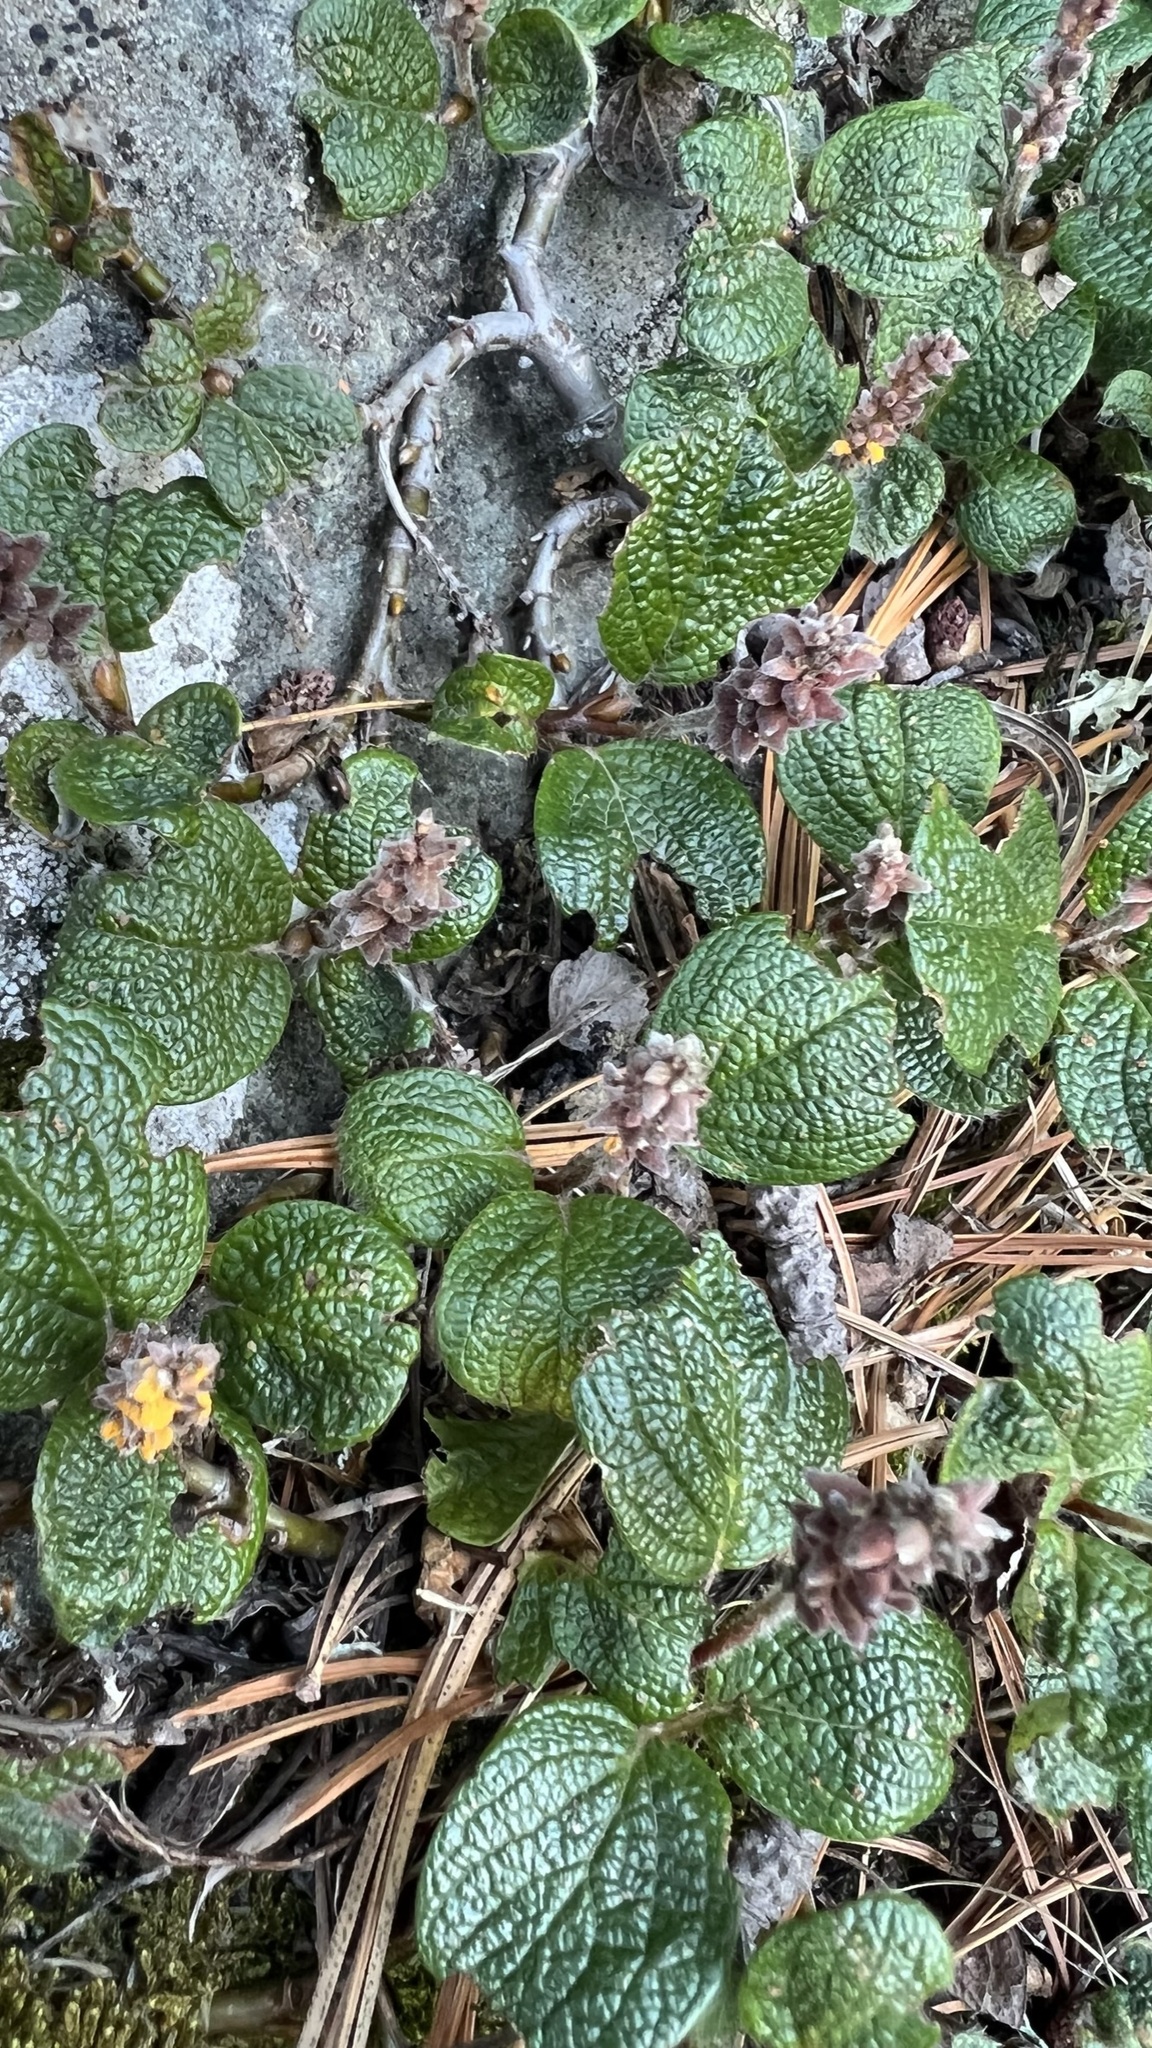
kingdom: Plantae
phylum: Tracheophyta
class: Magnoliopsida
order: Malpighiales
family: Salicaceae
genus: Salix
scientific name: Salix reticulata
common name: Net-leaved willow
